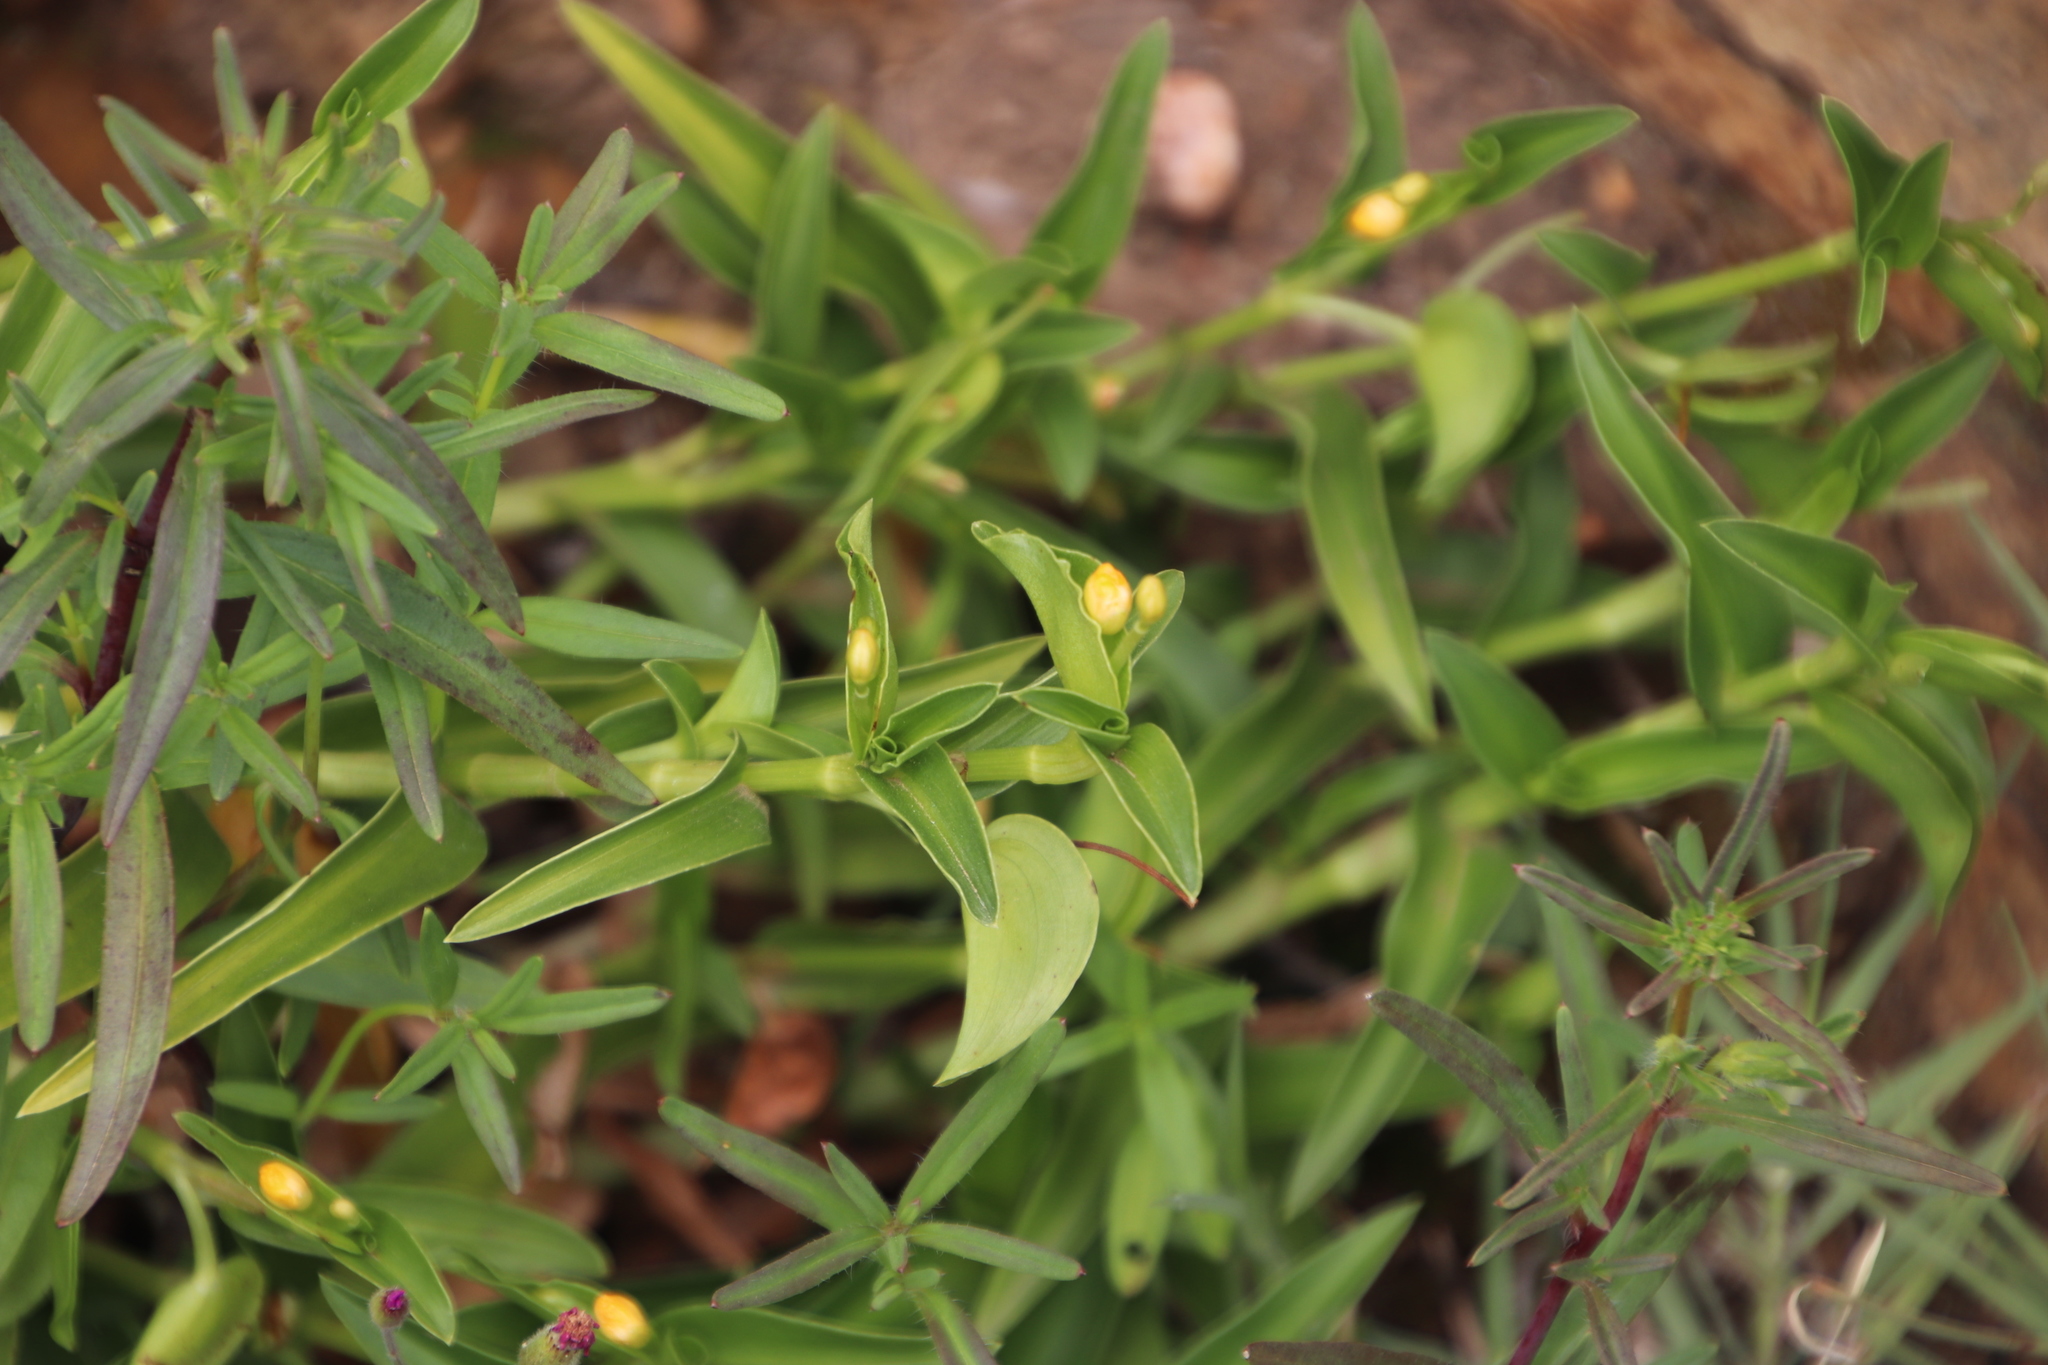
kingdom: Plantae
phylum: Tracheophyta
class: Liliopsida
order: Commelinales
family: Commelinaceae
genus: Commelina
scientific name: Commelina africana
